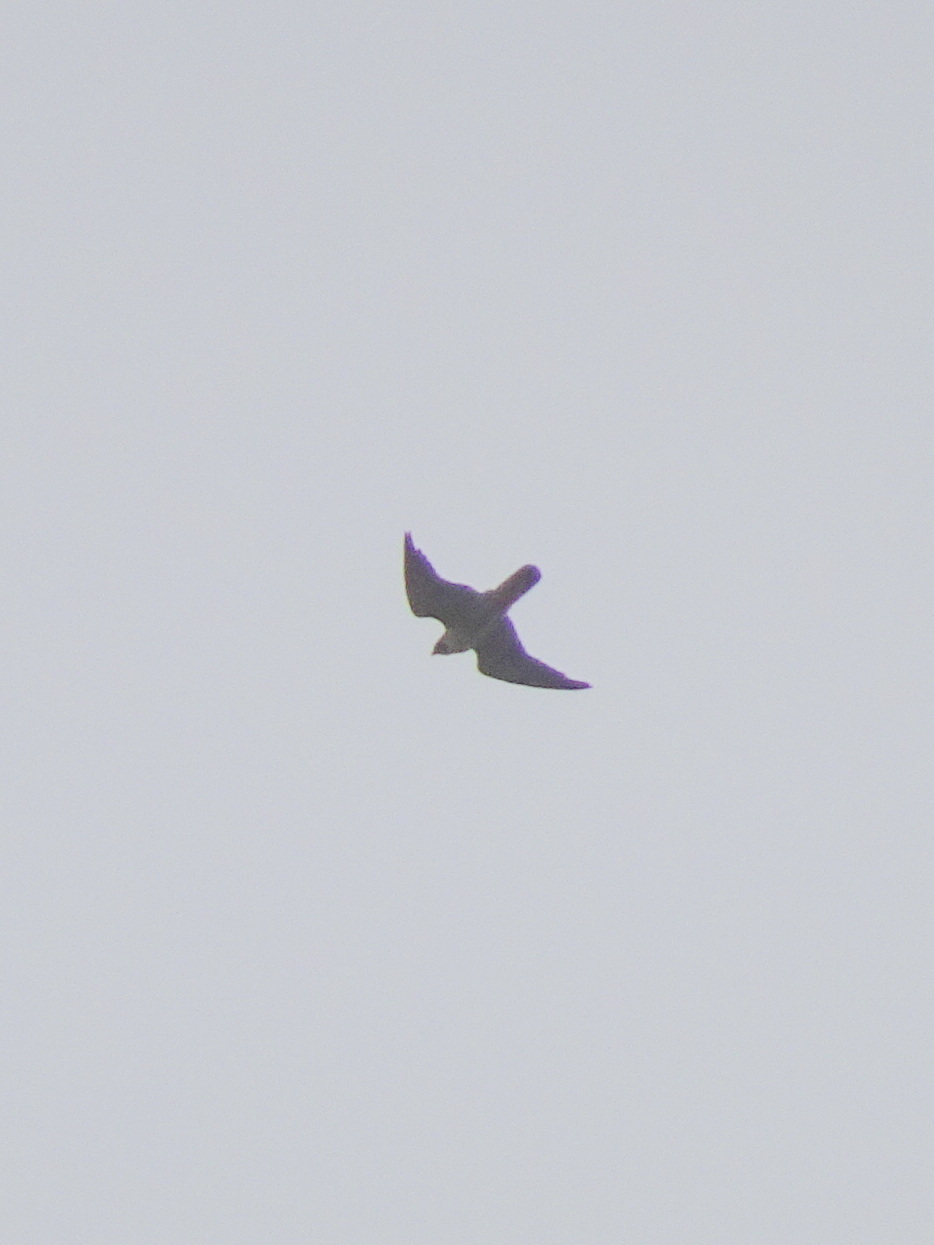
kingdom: Animalia
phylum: Chordata
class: Aves
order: Falconiformes
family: Falconidae
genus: Falco
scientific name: Falco peregrinus
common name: Peregrine falcon
